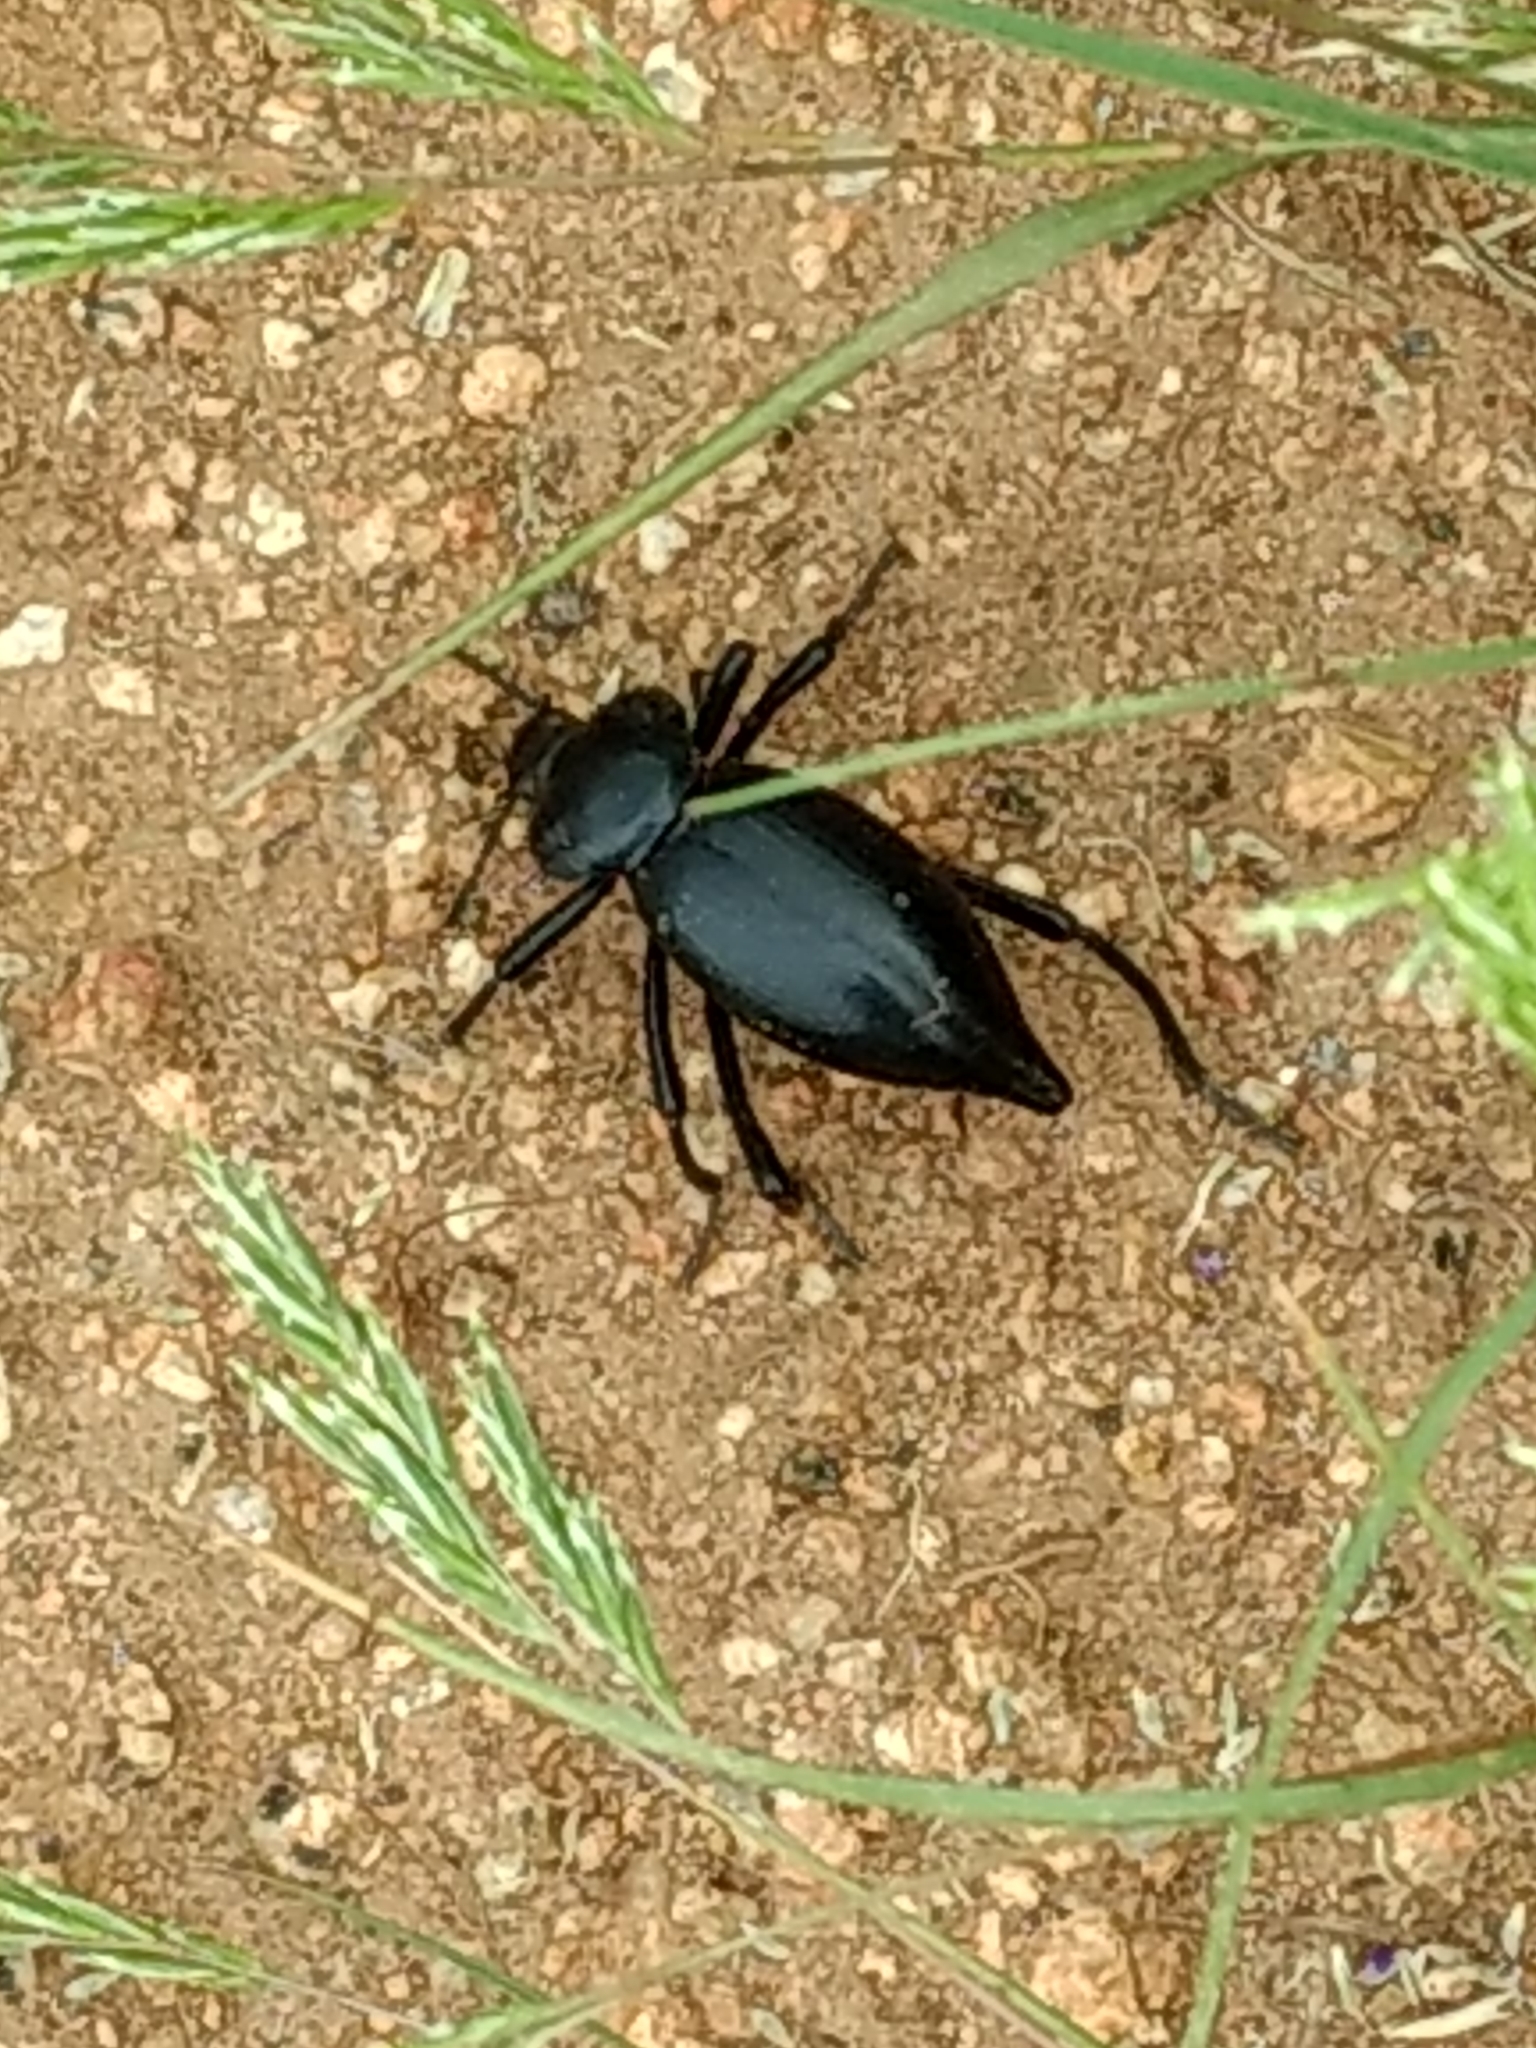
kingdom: Animalia
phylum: Arthropoda
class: Insecta
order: Coleoptera
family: Tenebrionidae
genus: Eleodes
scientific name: Eleodes acuticauda
